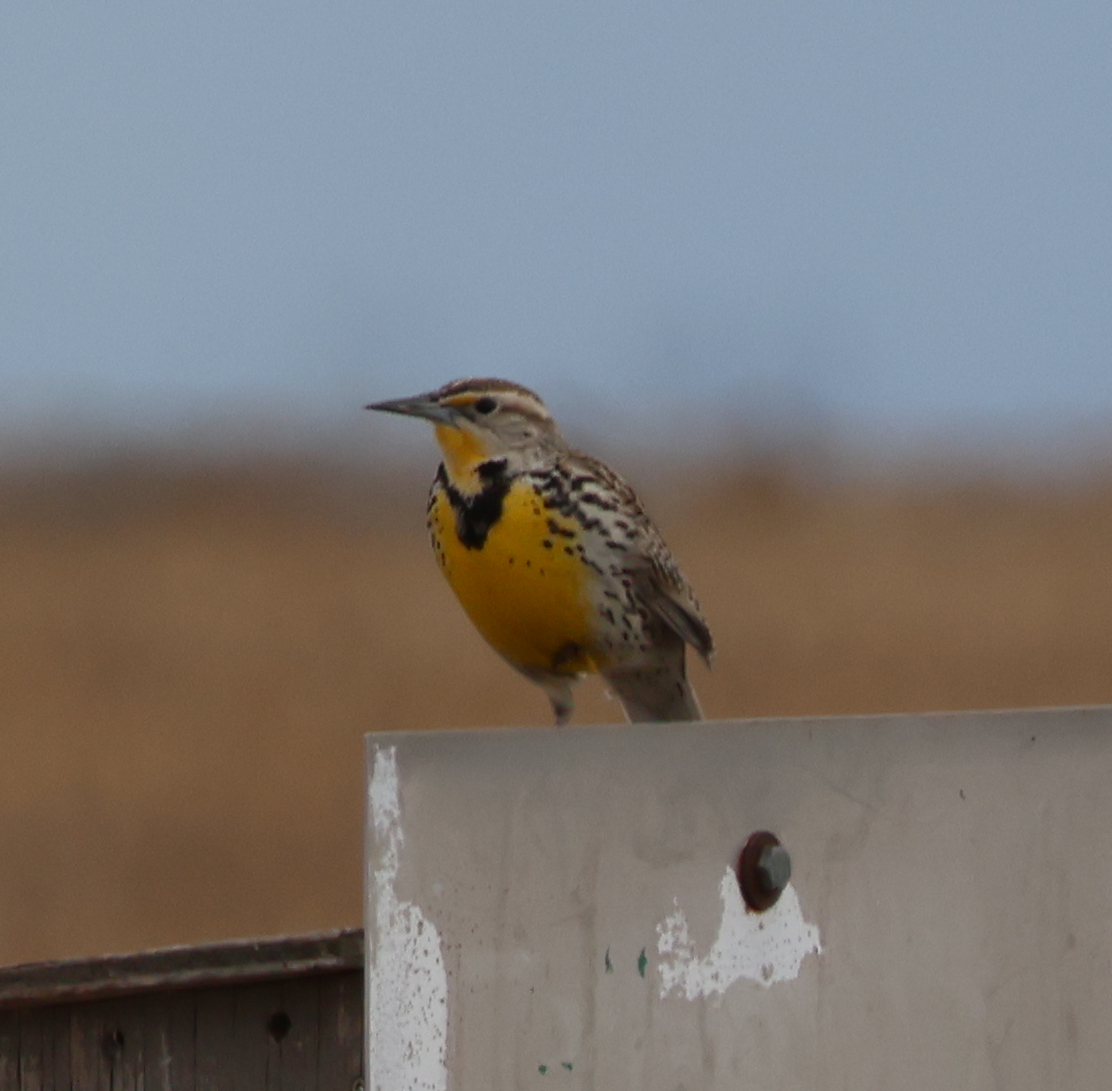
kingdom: Animalia
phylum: Chordata
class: Aves
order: Passeriformes
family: Icteridae
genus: Sturnella
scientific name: Sturnella neglecta
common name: Western meadowlark
